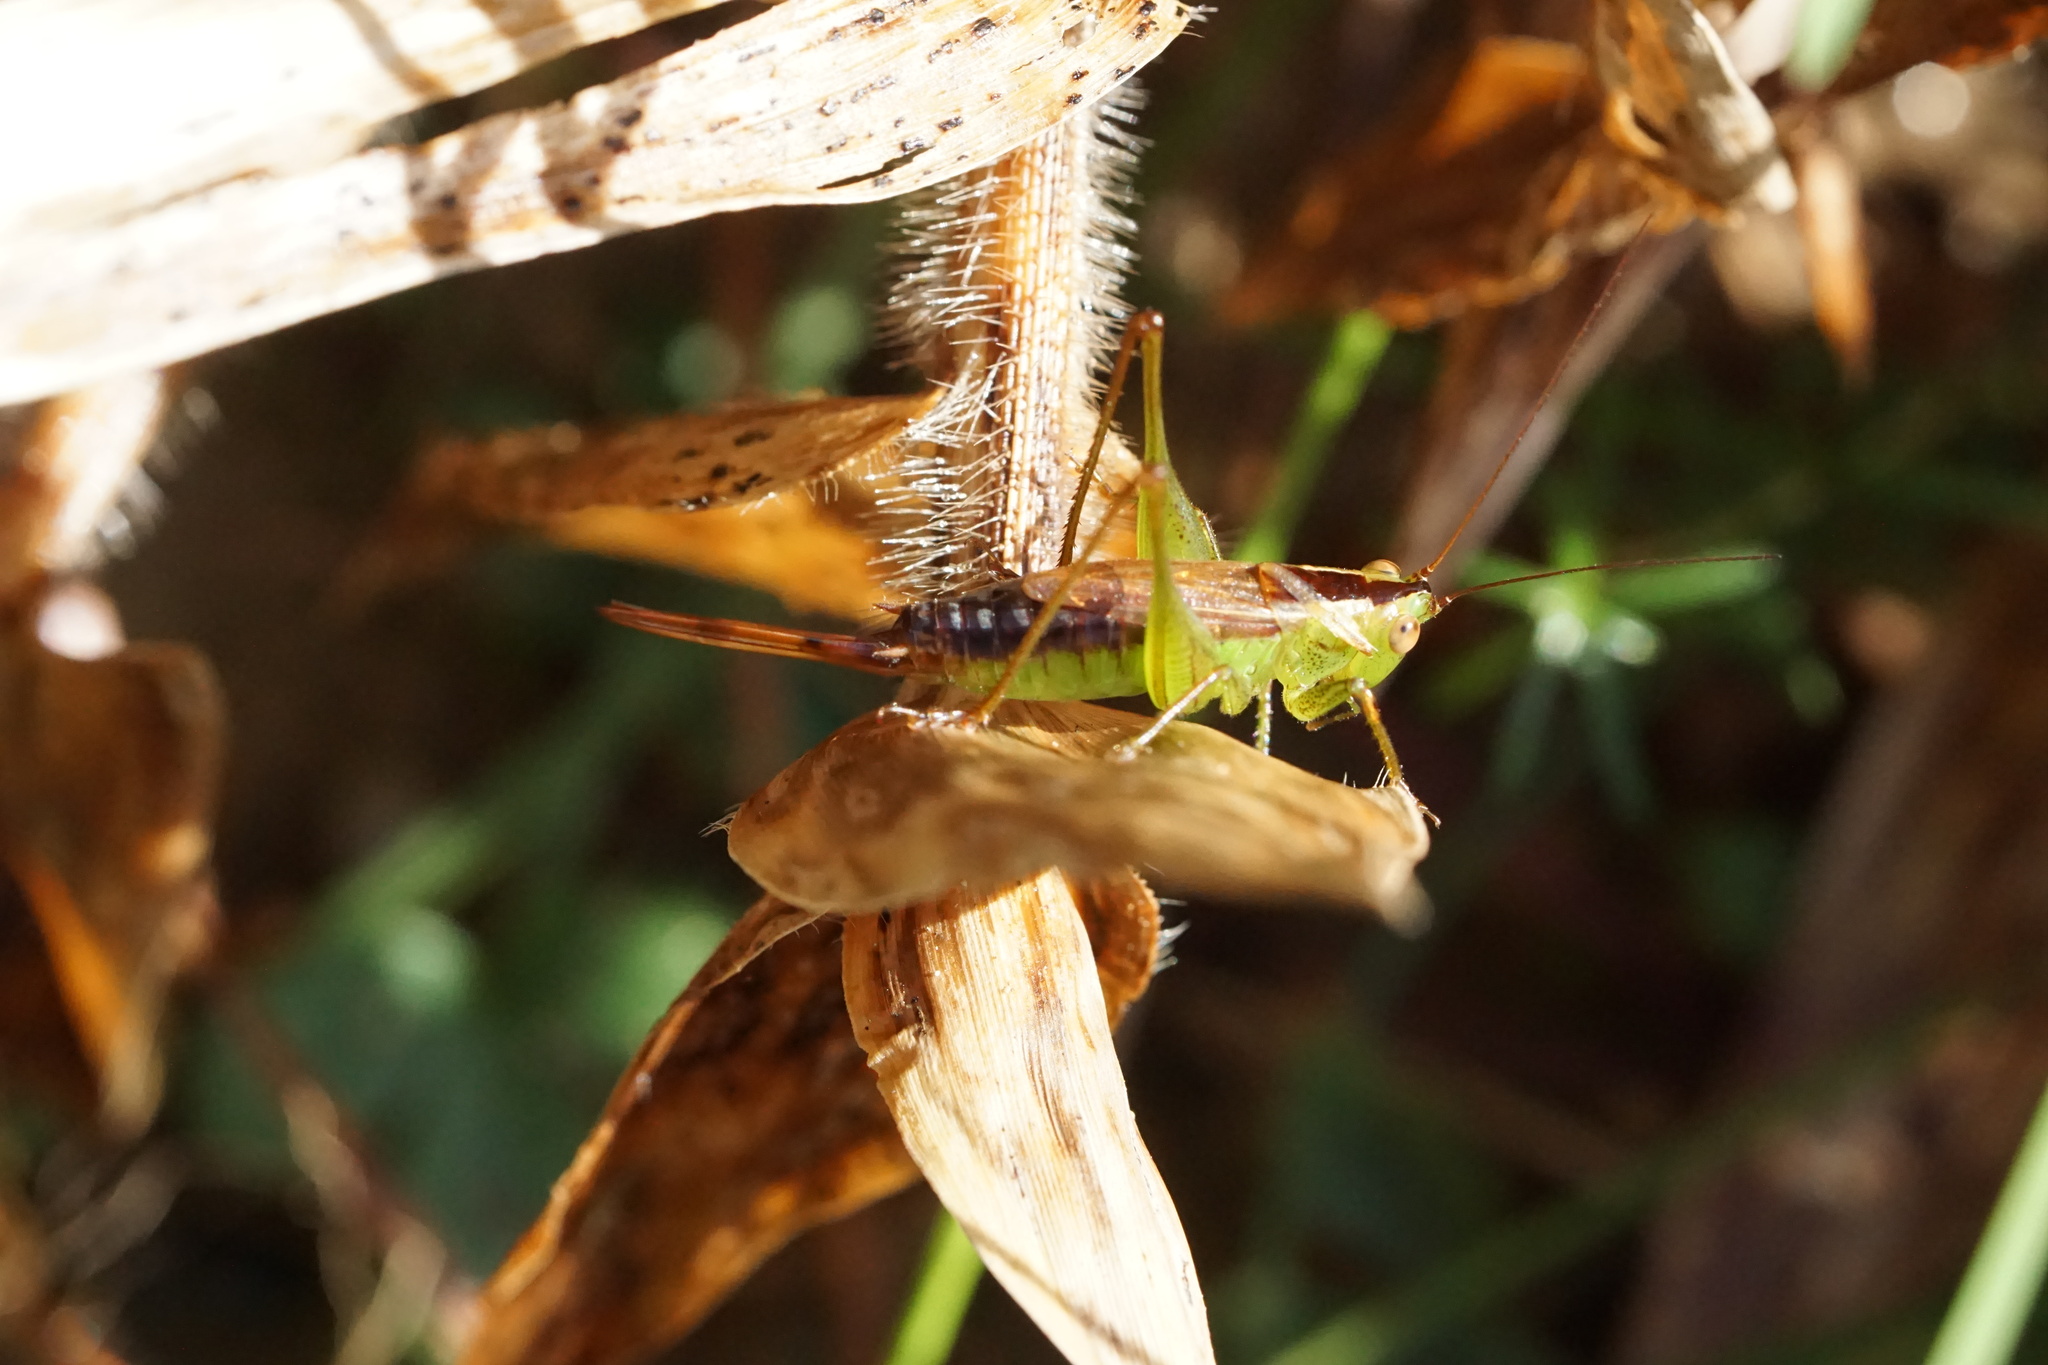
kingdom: Animalia
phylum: Arthropoda
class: Insecta
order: Orthoptera
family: Tettigoniidae
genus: Conocephalus
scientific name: Conocephalus brevipennis
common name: Short-winged meadow katydid
